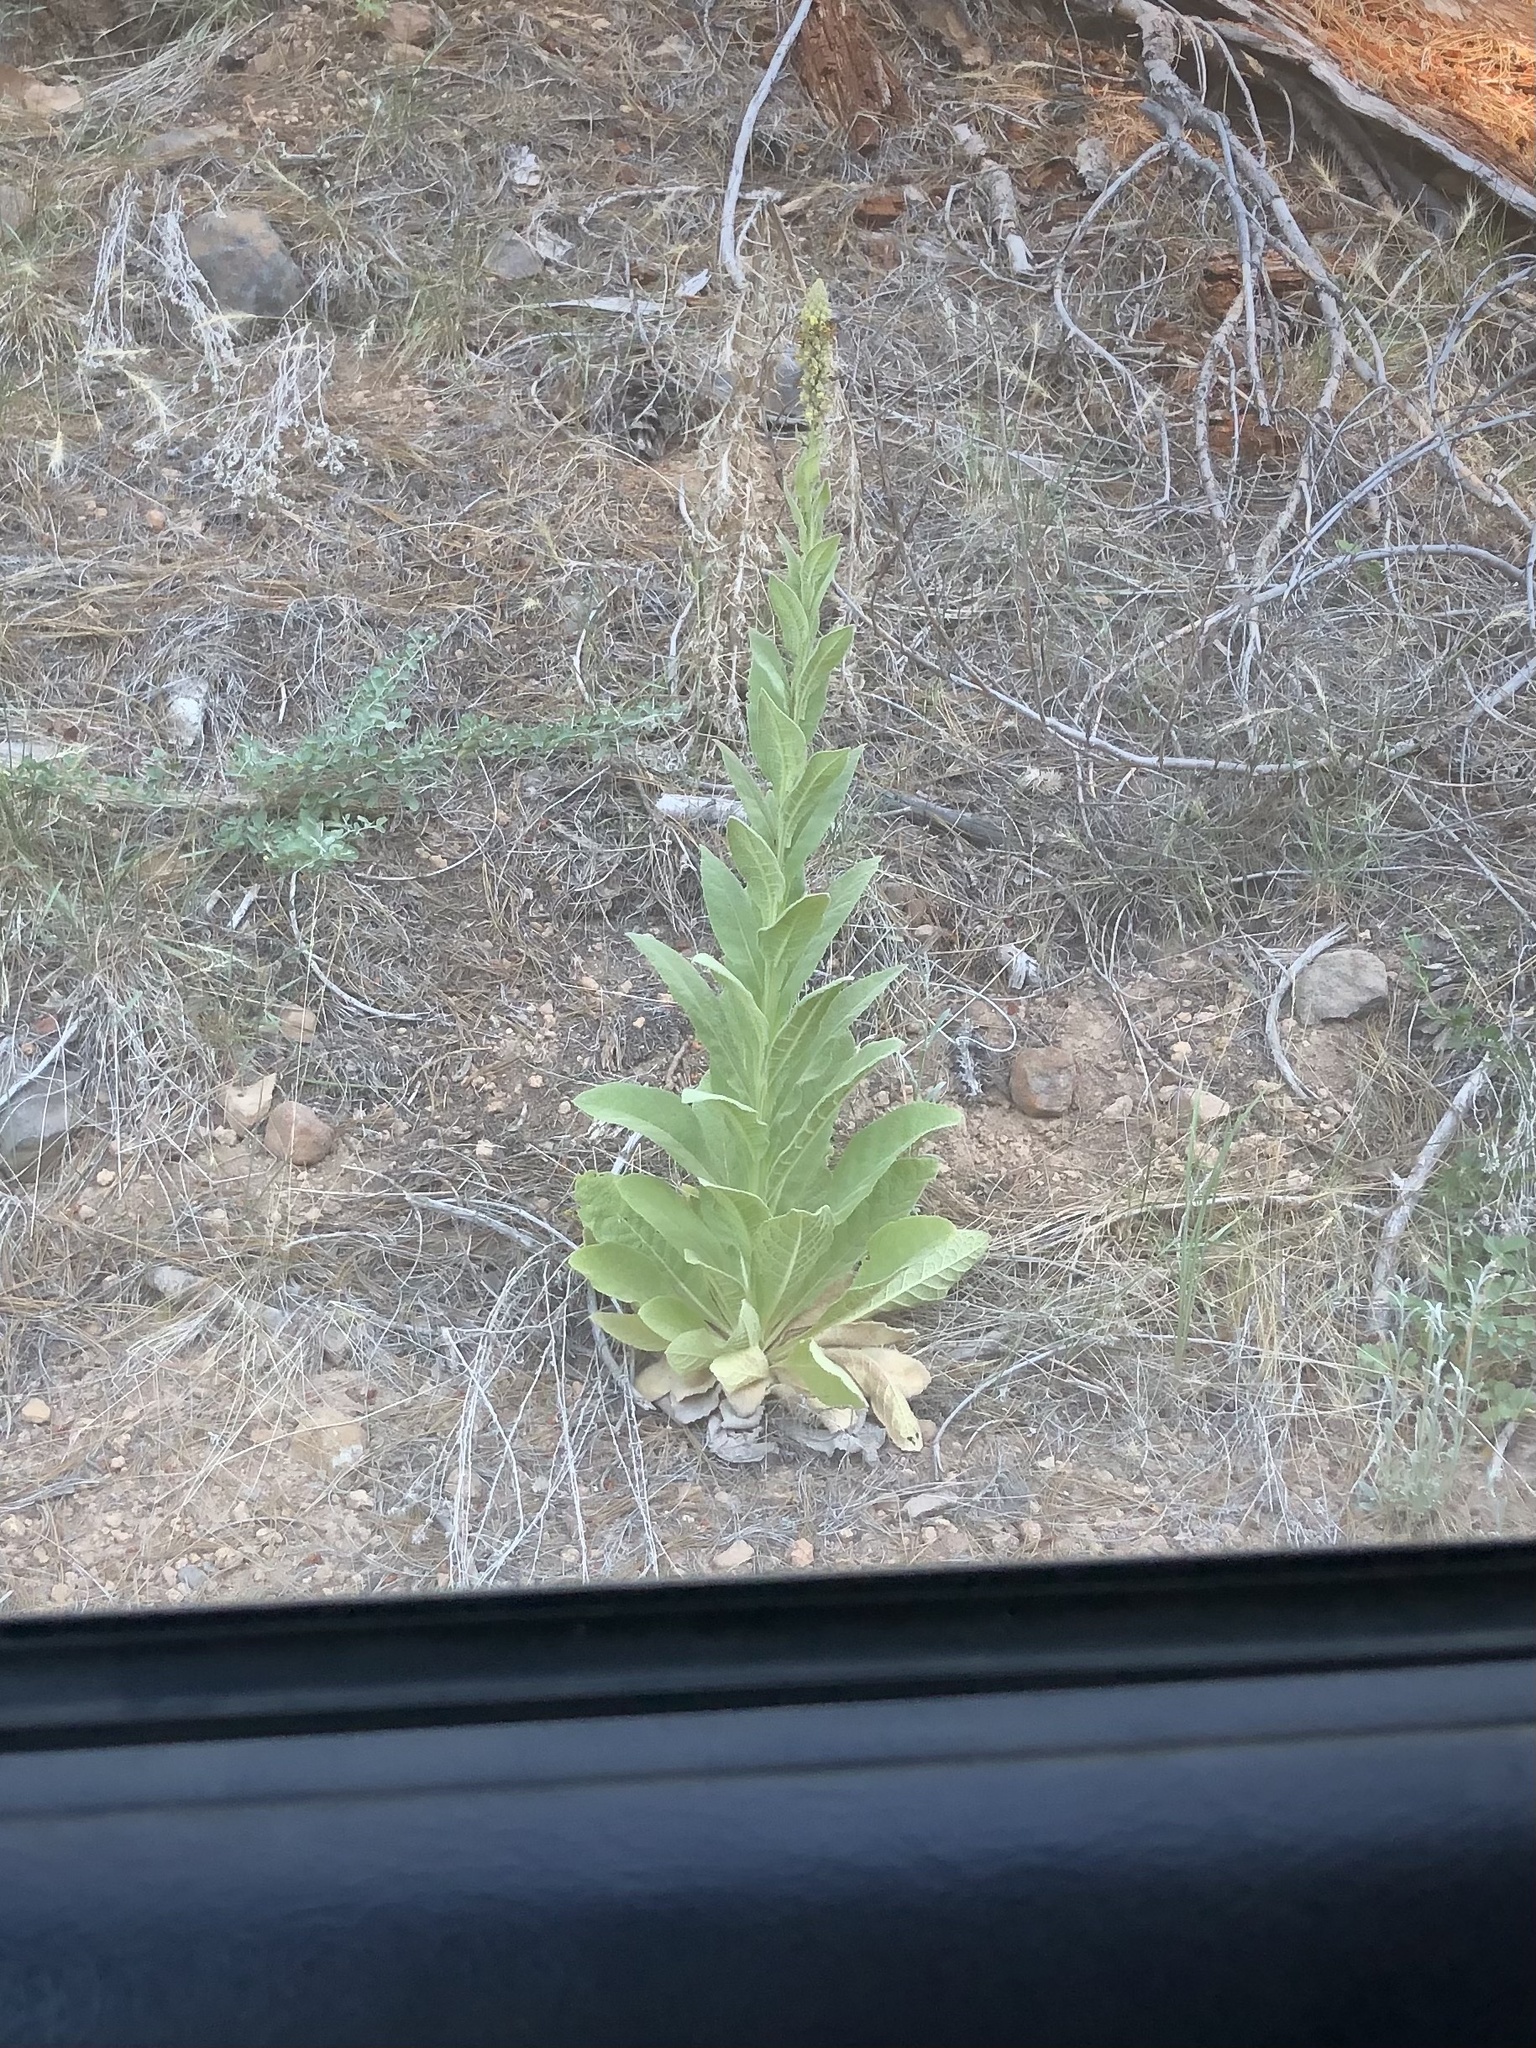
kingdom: Plantae
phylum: Tracheophyta
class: Magnoliopsida
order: Lamiales
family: Scrophulariaceae
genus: Verbascum
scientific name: Verbascum thapsus
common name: Common mullein
